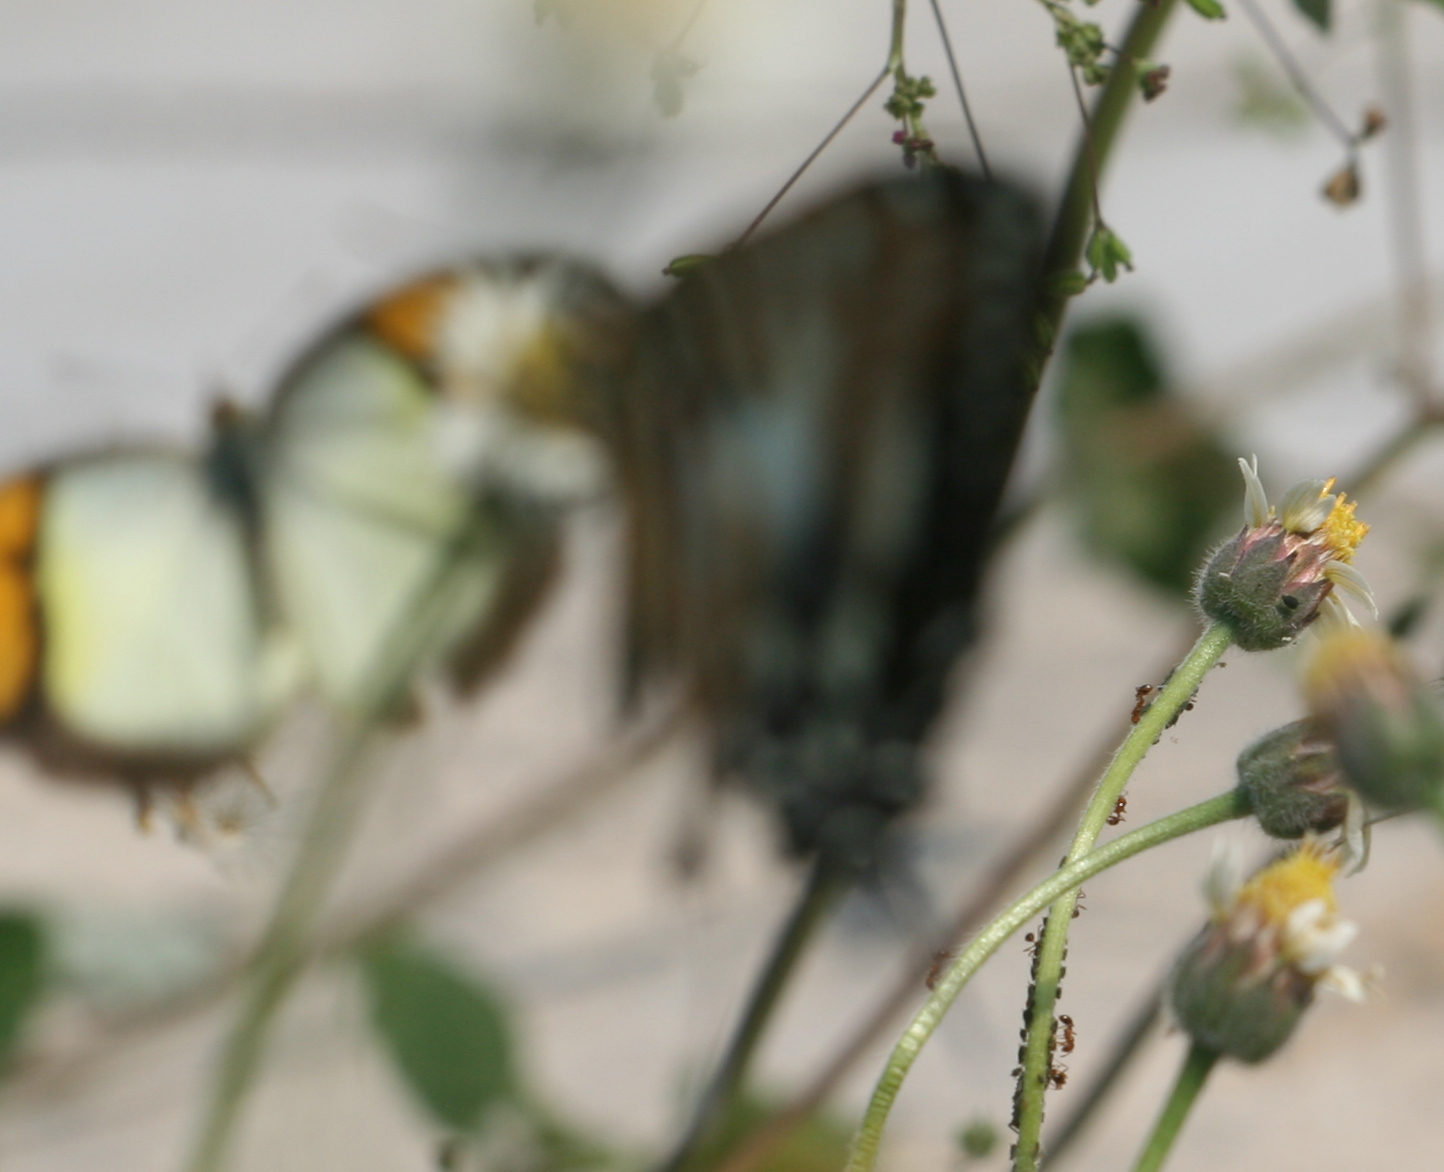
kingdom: Animalia
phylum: Arthropoda
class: Insecta
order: Lepidoptera
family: Pieridae
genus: Ixias
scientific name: Ixias pyrene
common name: Yellow orange tip
